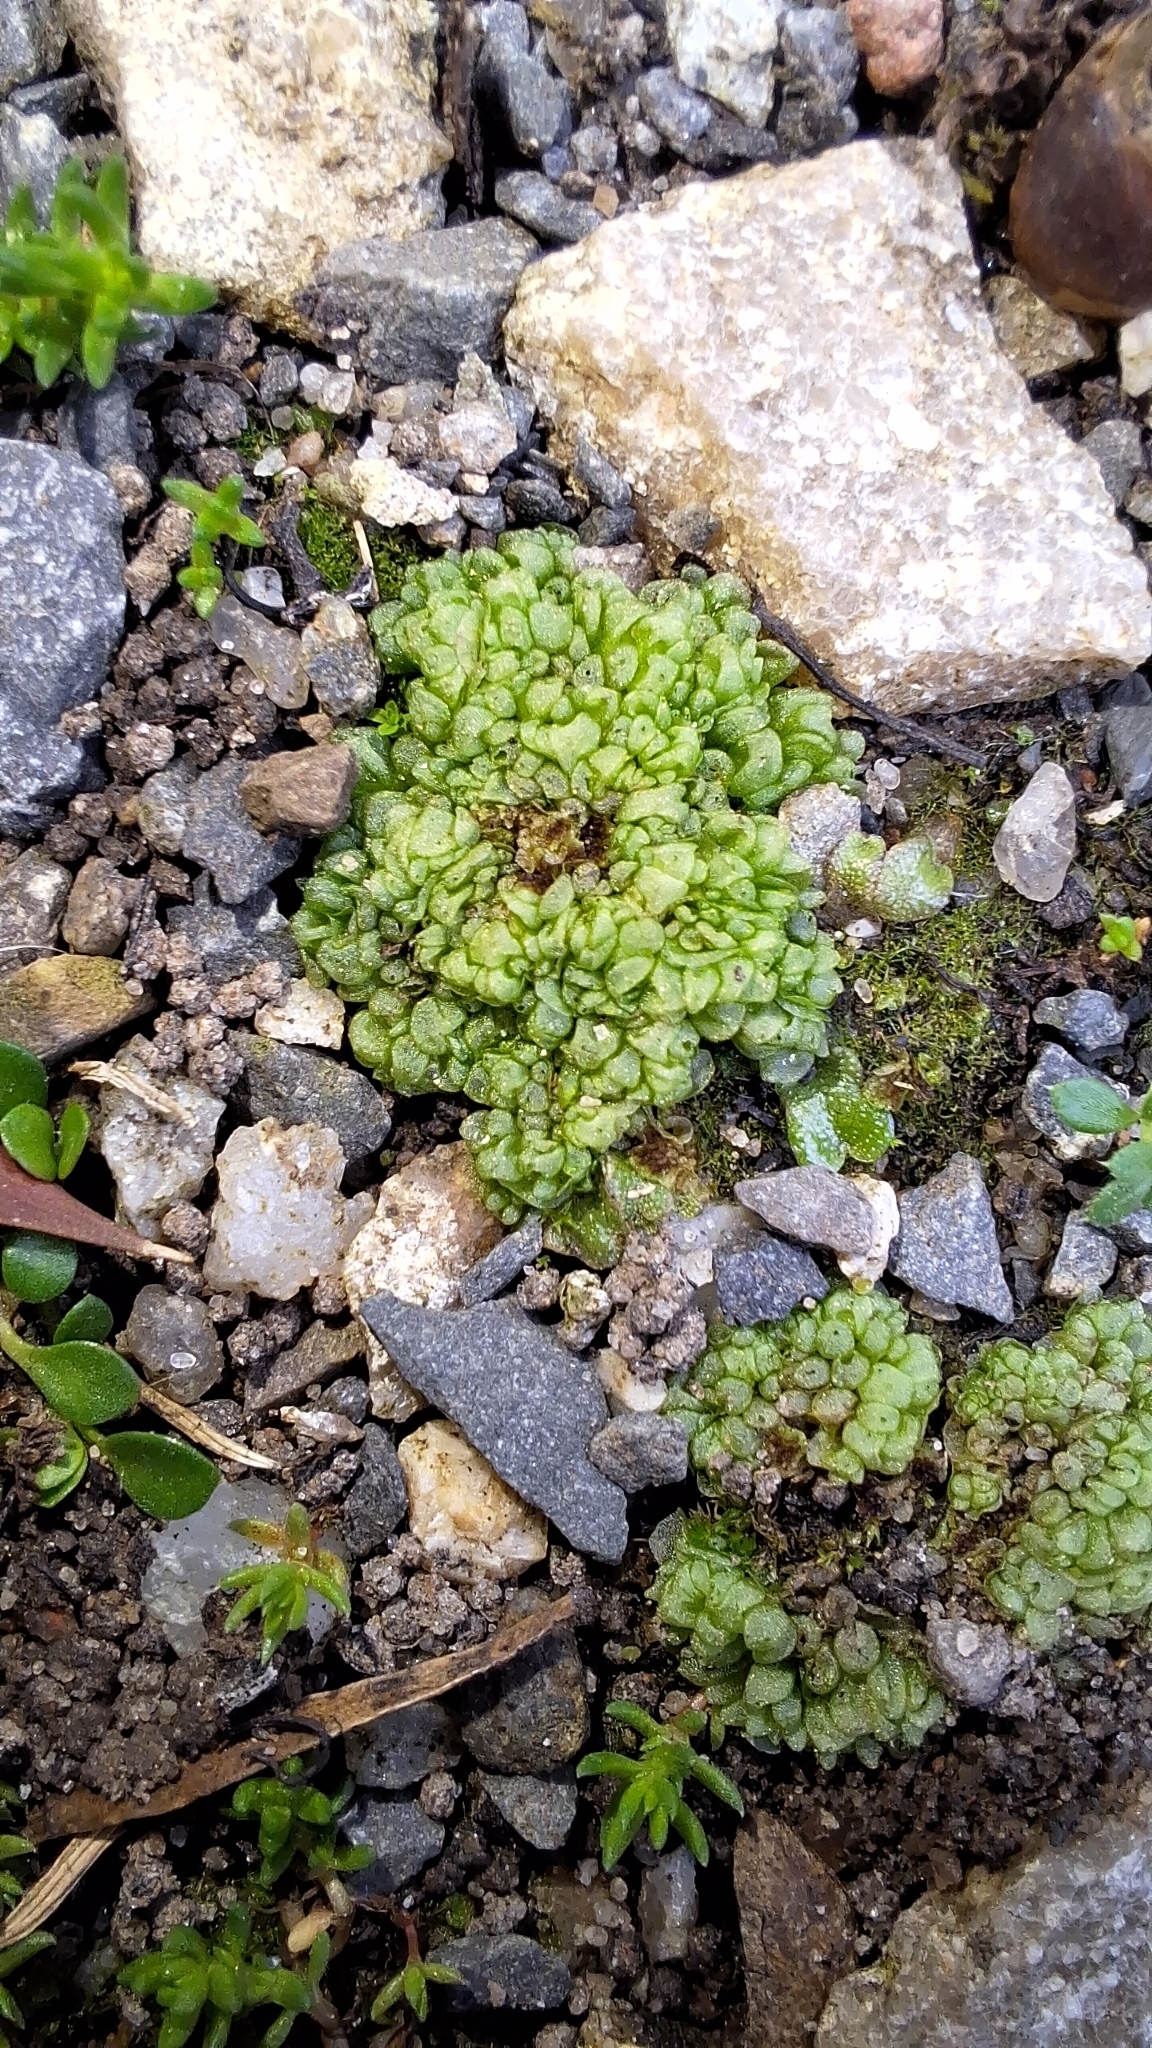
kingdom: Plantae
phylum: Marchantiophyta
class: Marchantiopsida
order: Sphaerocarpales
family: Sphaerocarpaceae
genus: Sphaerocarpos
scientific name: Sphaerocarpos texanus
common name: Texas balloonwort
